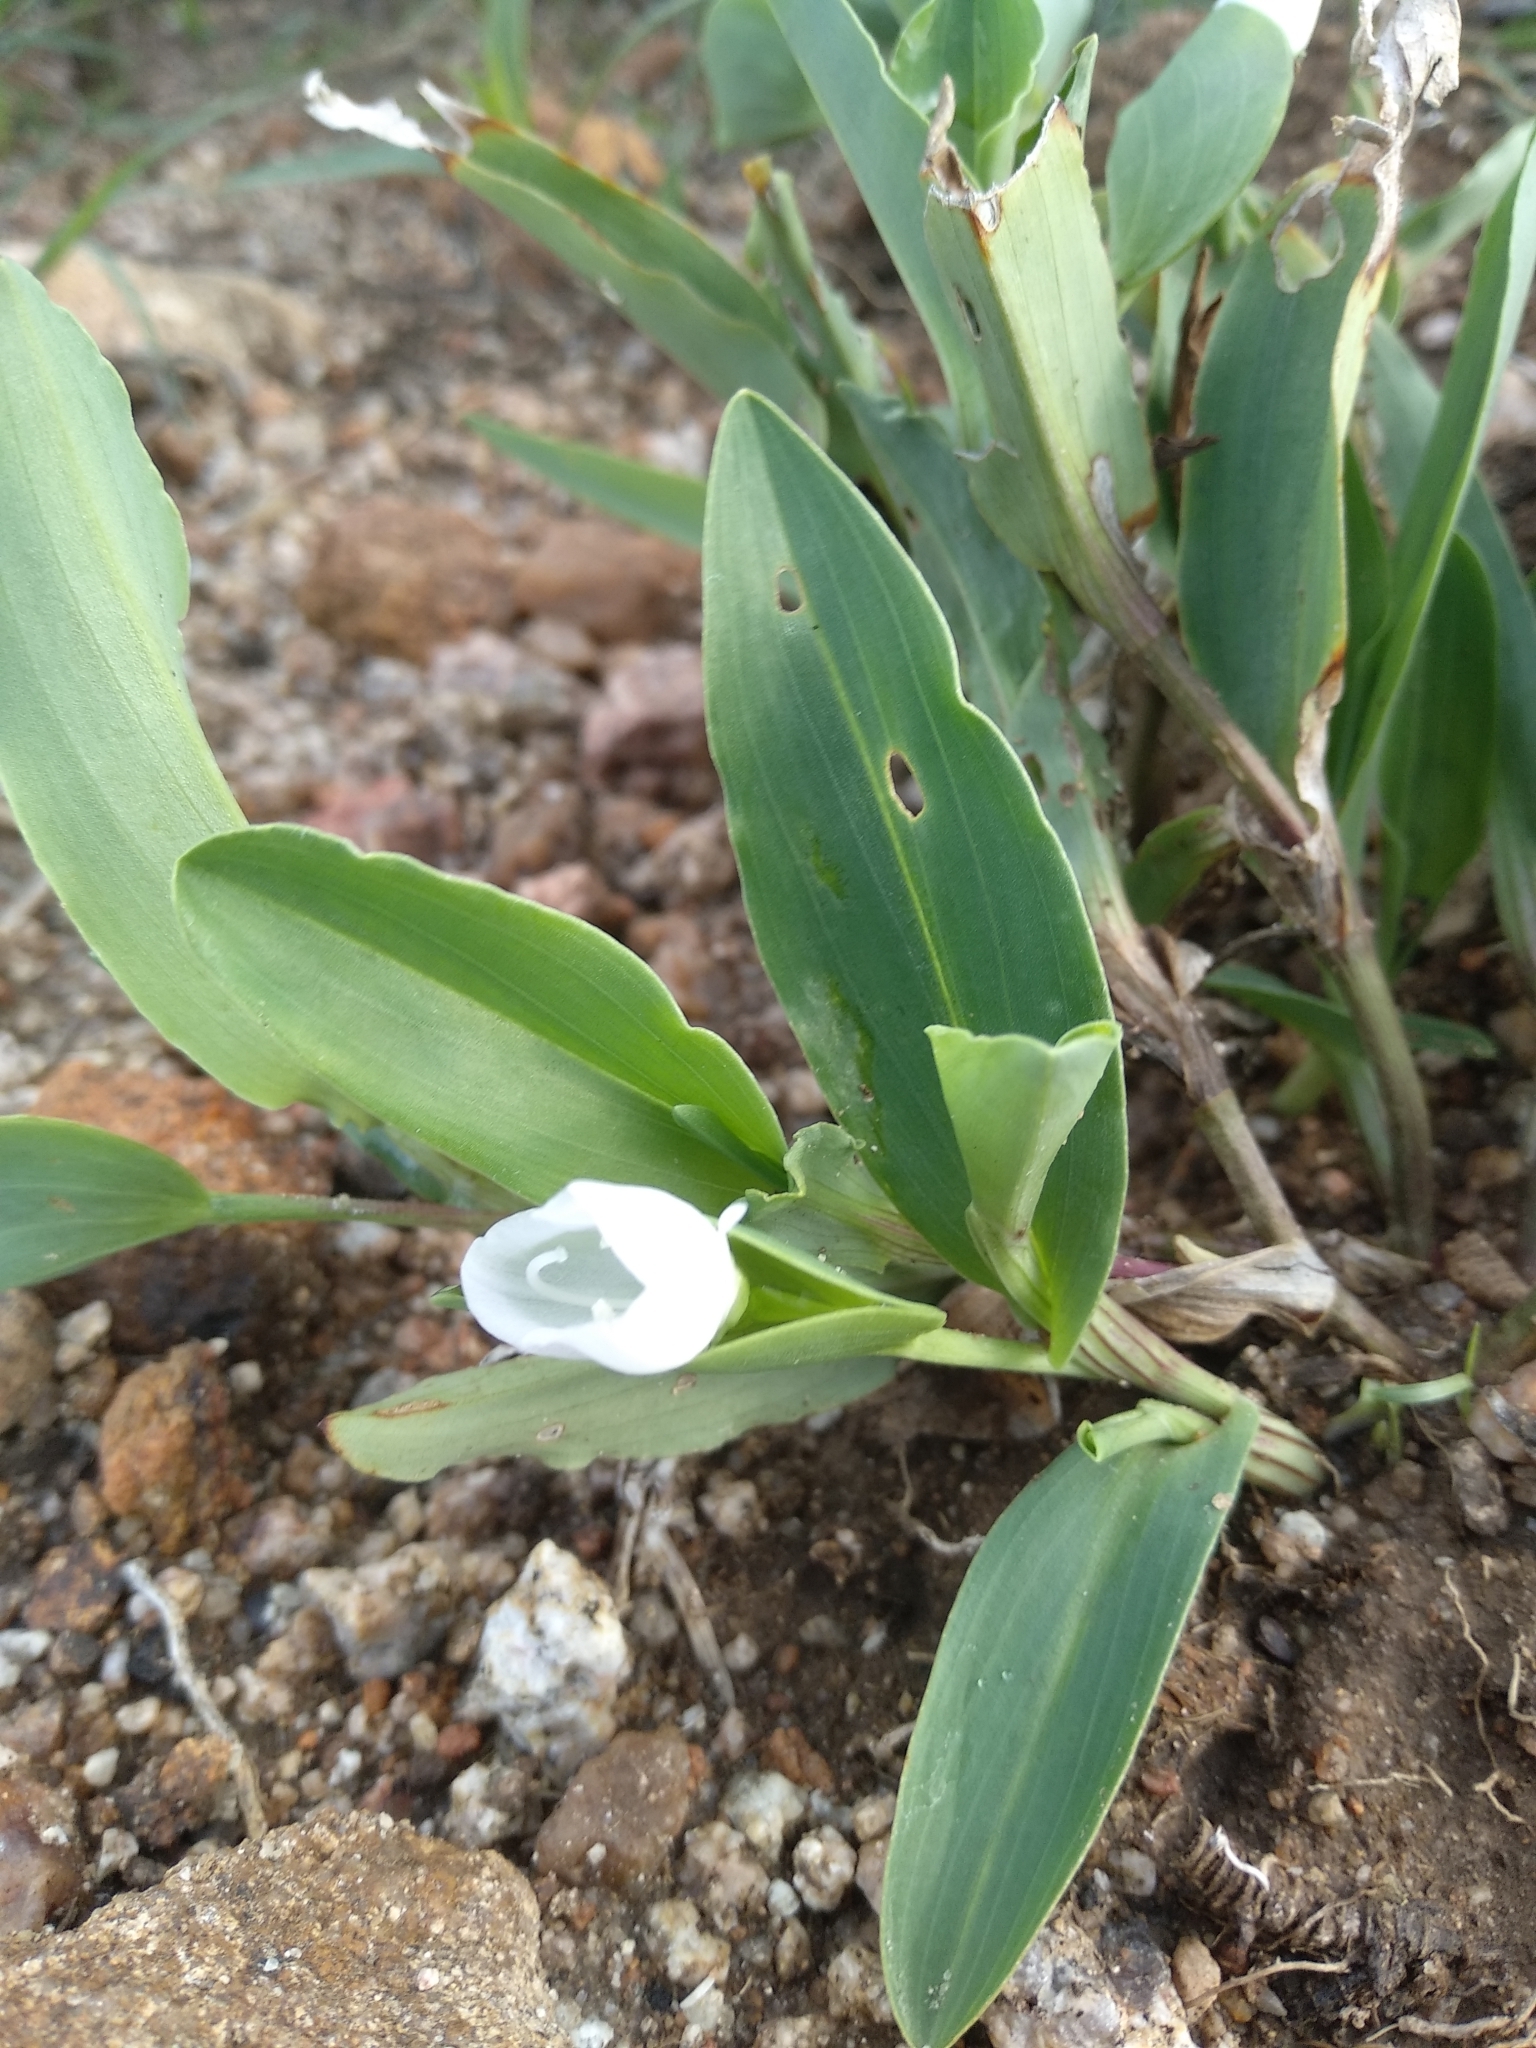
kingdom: Plantae
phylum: Tracheophyta
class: Liliopsida
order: Commelinales
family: Commelinaceae
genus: Commelina
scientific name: Commelina platyphylla
